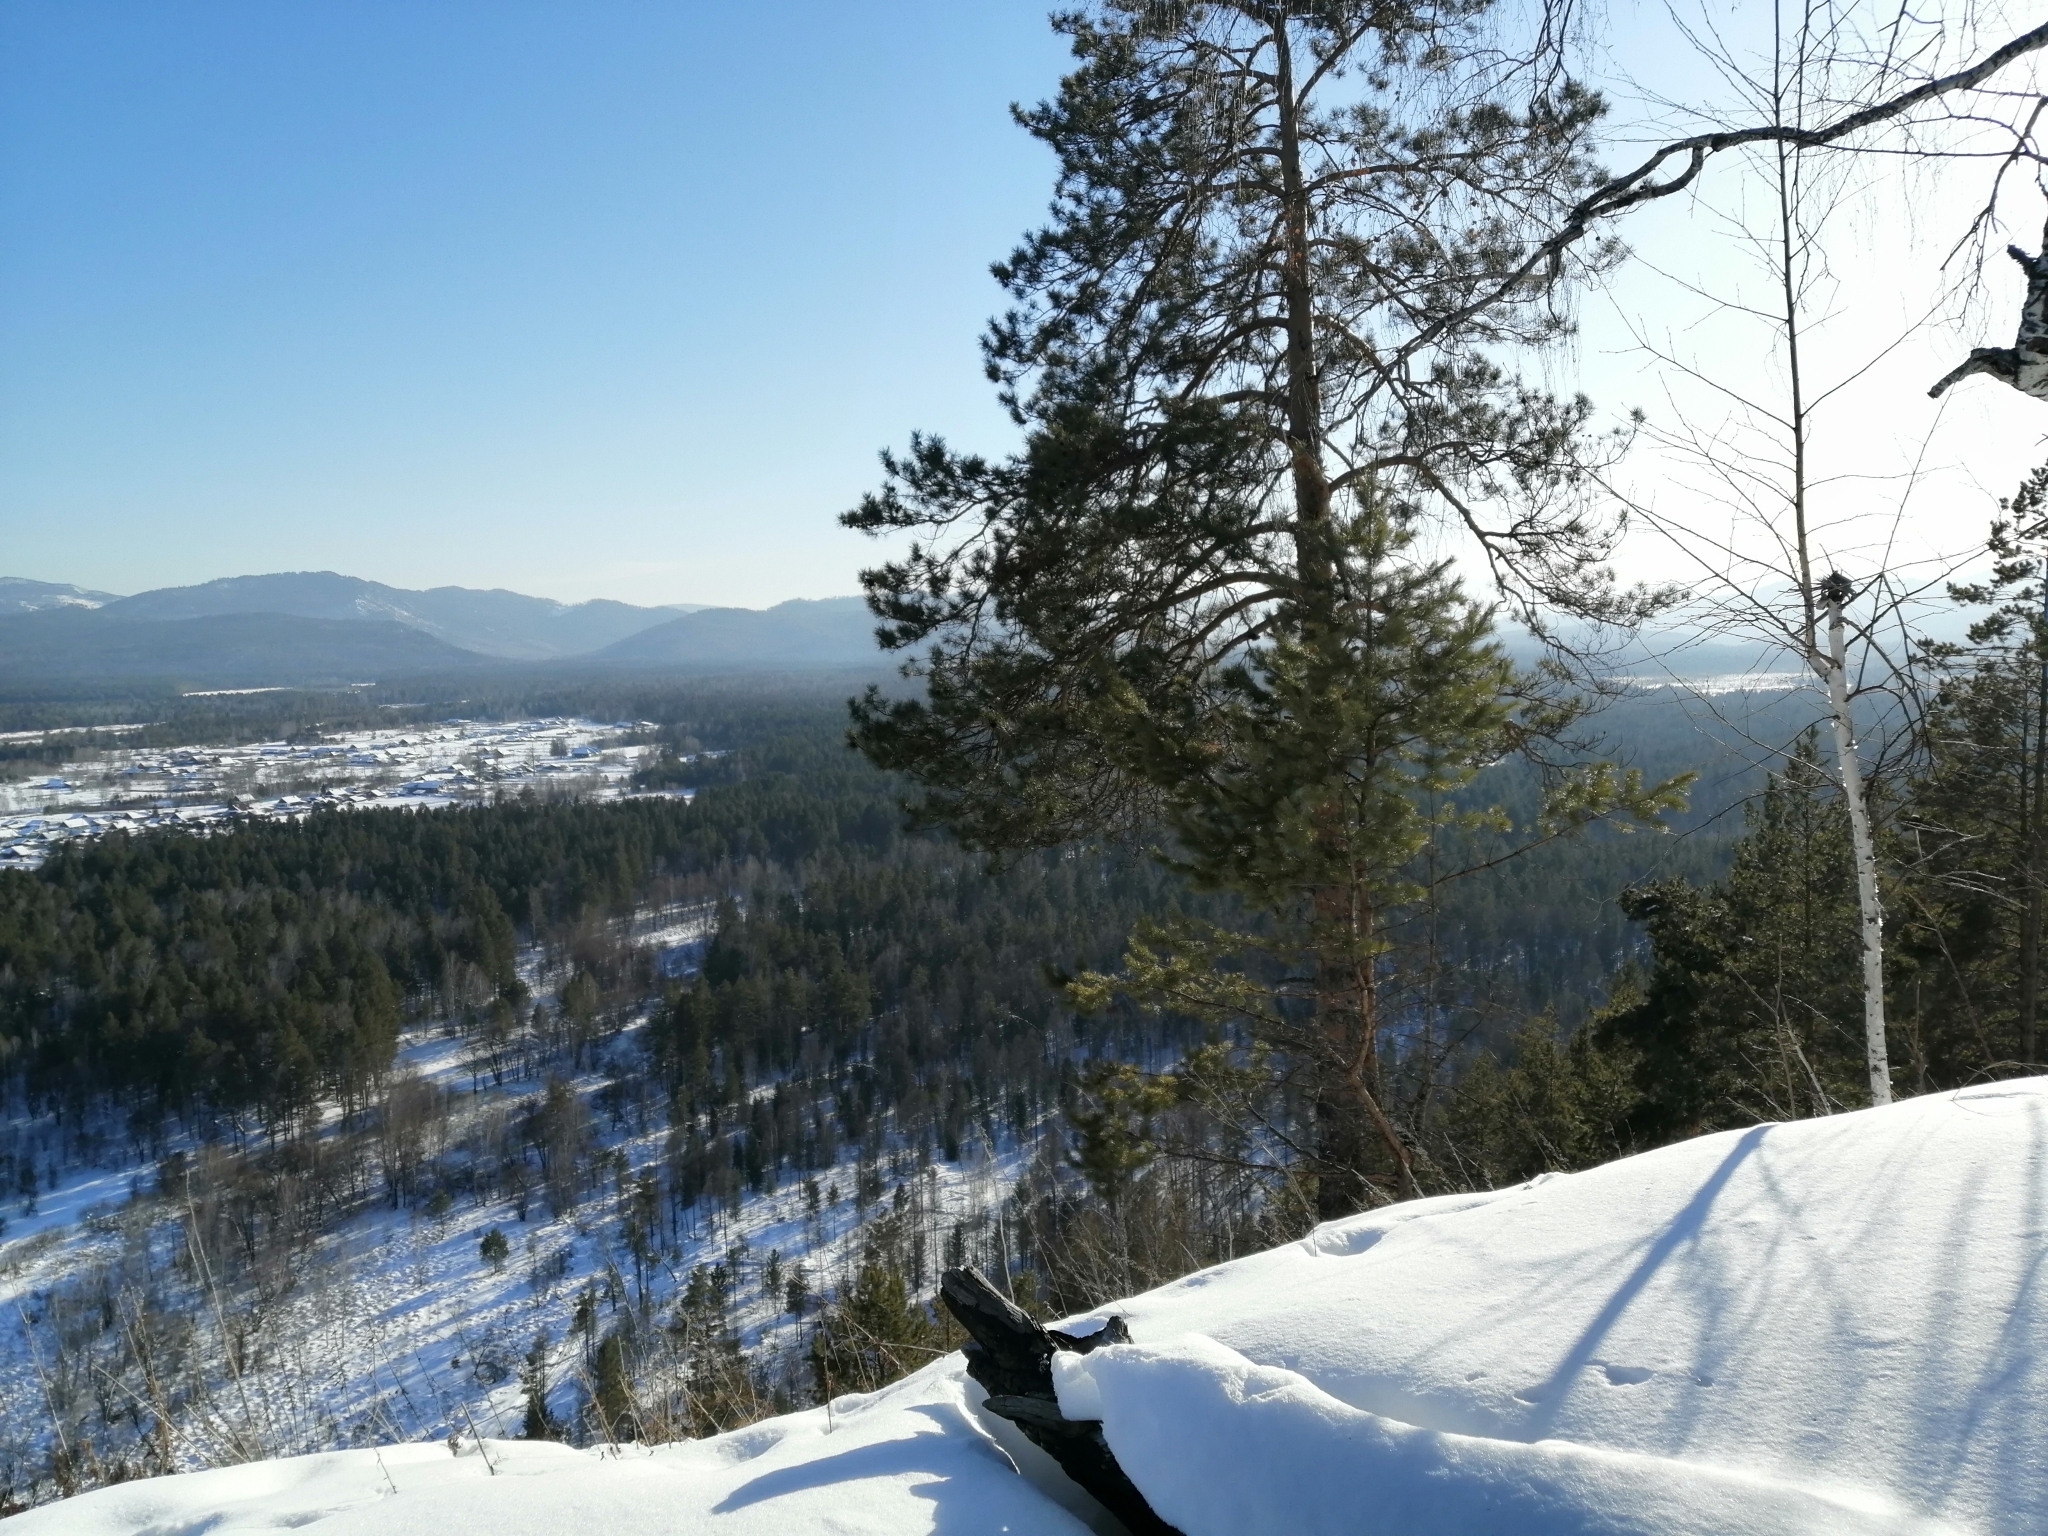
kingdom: Plantae
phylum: Tracheophyta
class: Pinopsida
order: Pinales
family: Pinaceae
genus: Pinus
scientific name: Pinus sylvestris
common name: Scots pine
